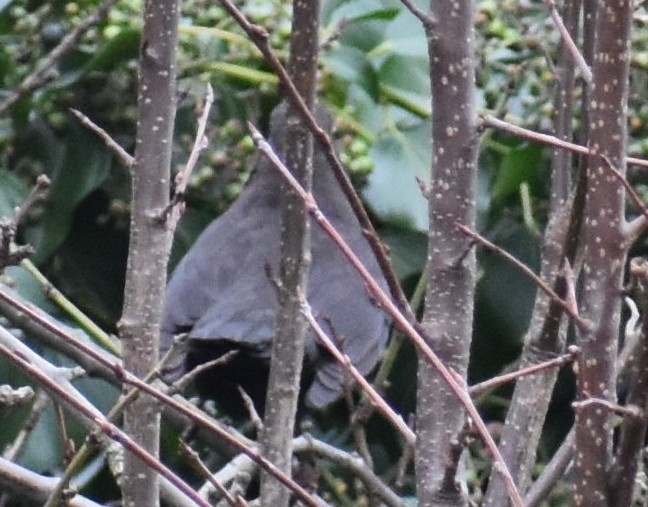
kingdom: Animalia
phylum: Chordata
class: Aves
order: Passeriformes
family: Turdidae
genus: Turdus
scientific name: Turdus merula
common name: Common blackbird
